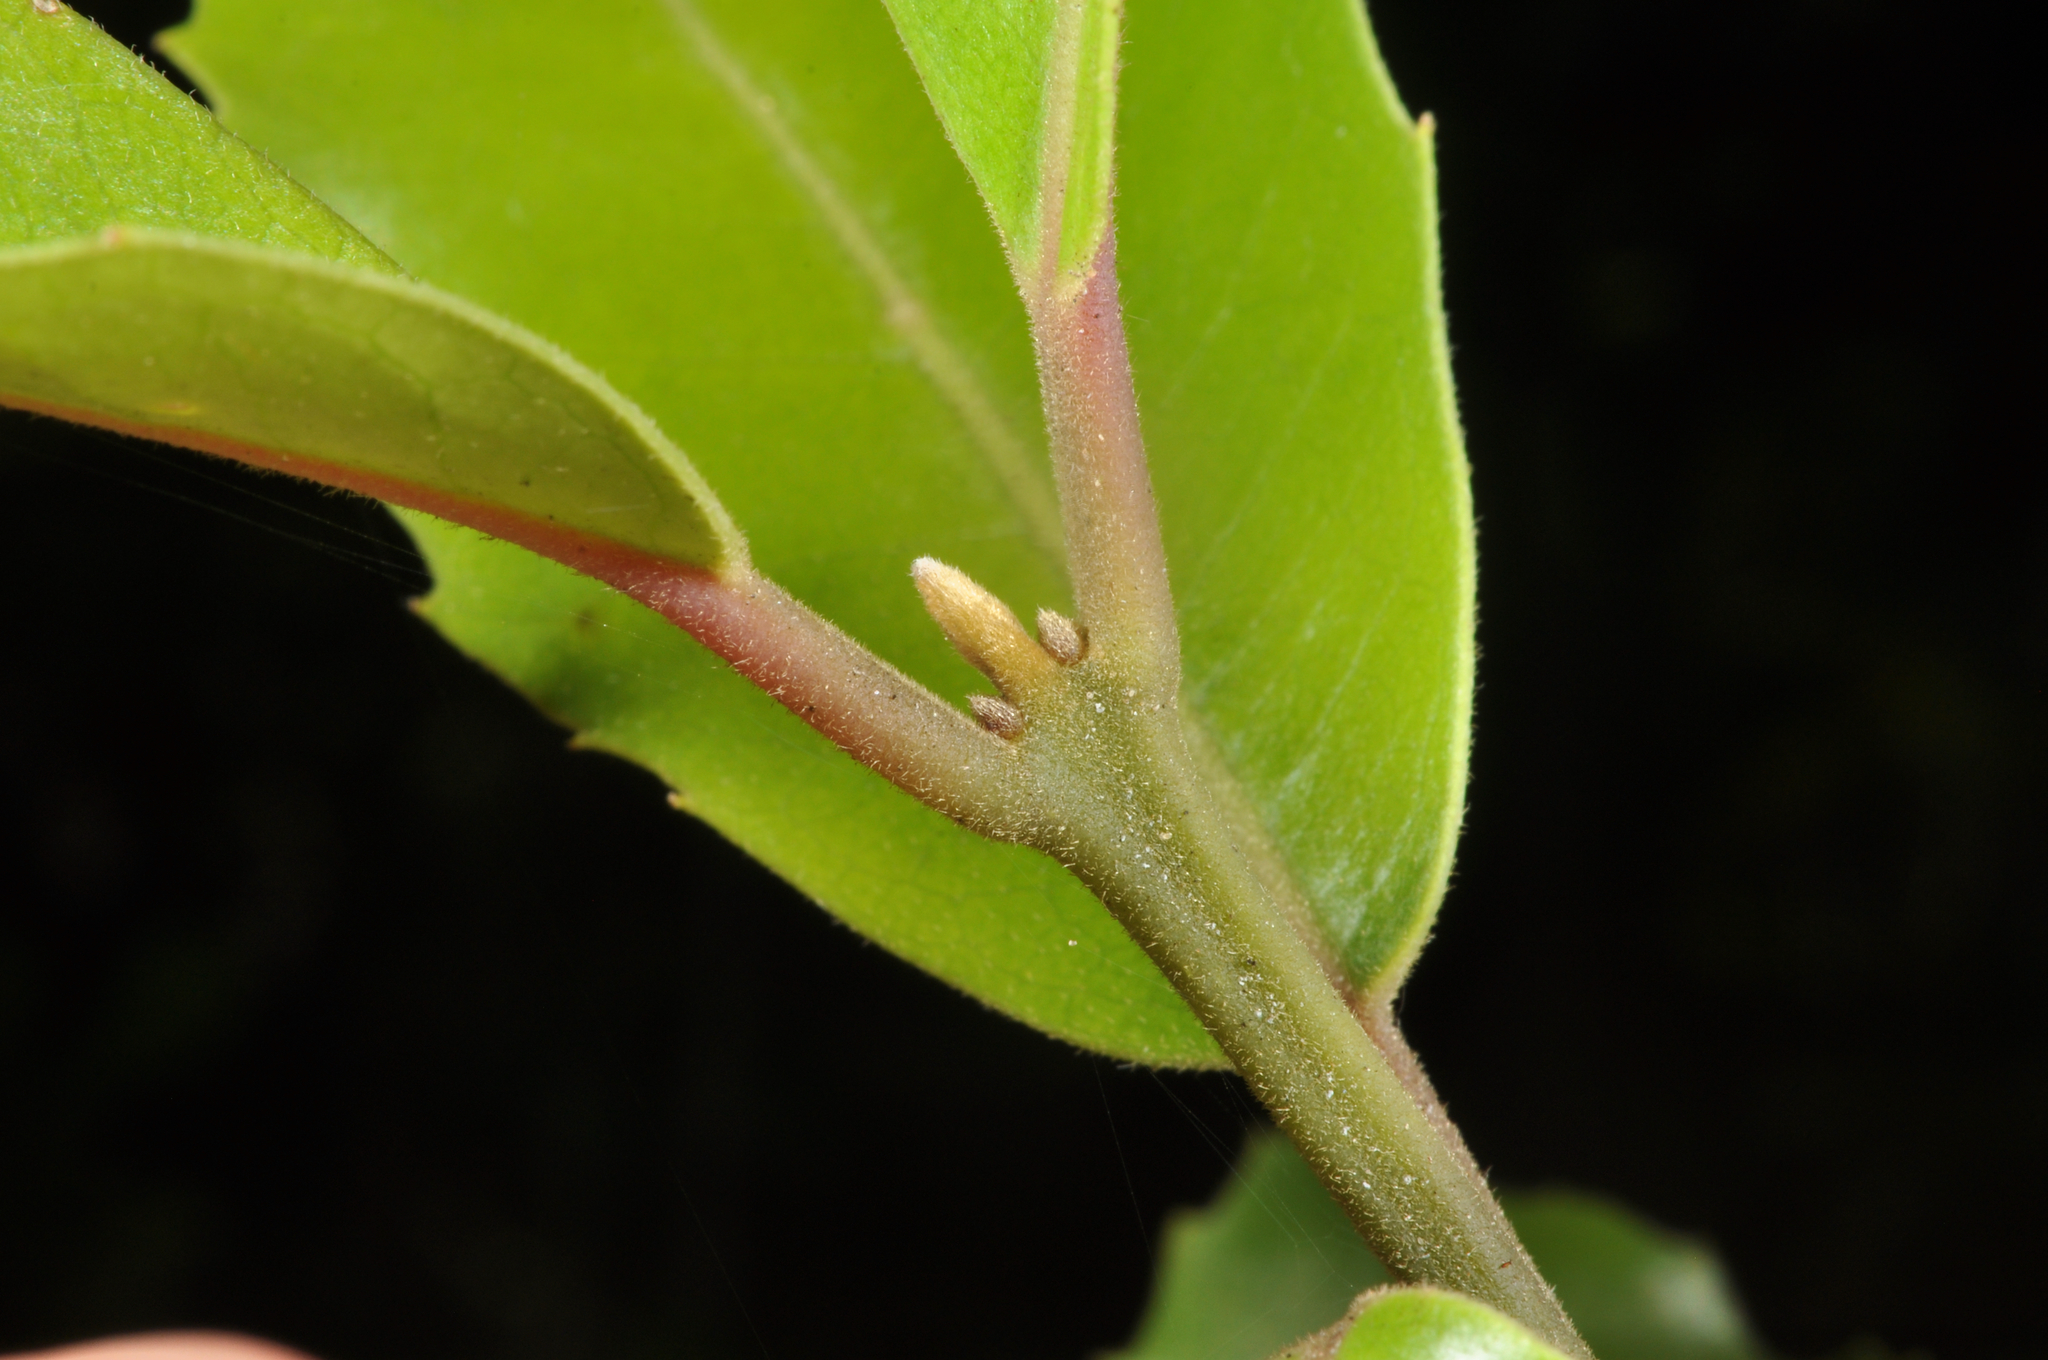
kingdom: Plantae
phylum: Tracheophyta
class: Magnoliopsida
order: Laurales
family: Monimiaceae
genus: Hedycarya
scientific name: Hedycarya arborea
